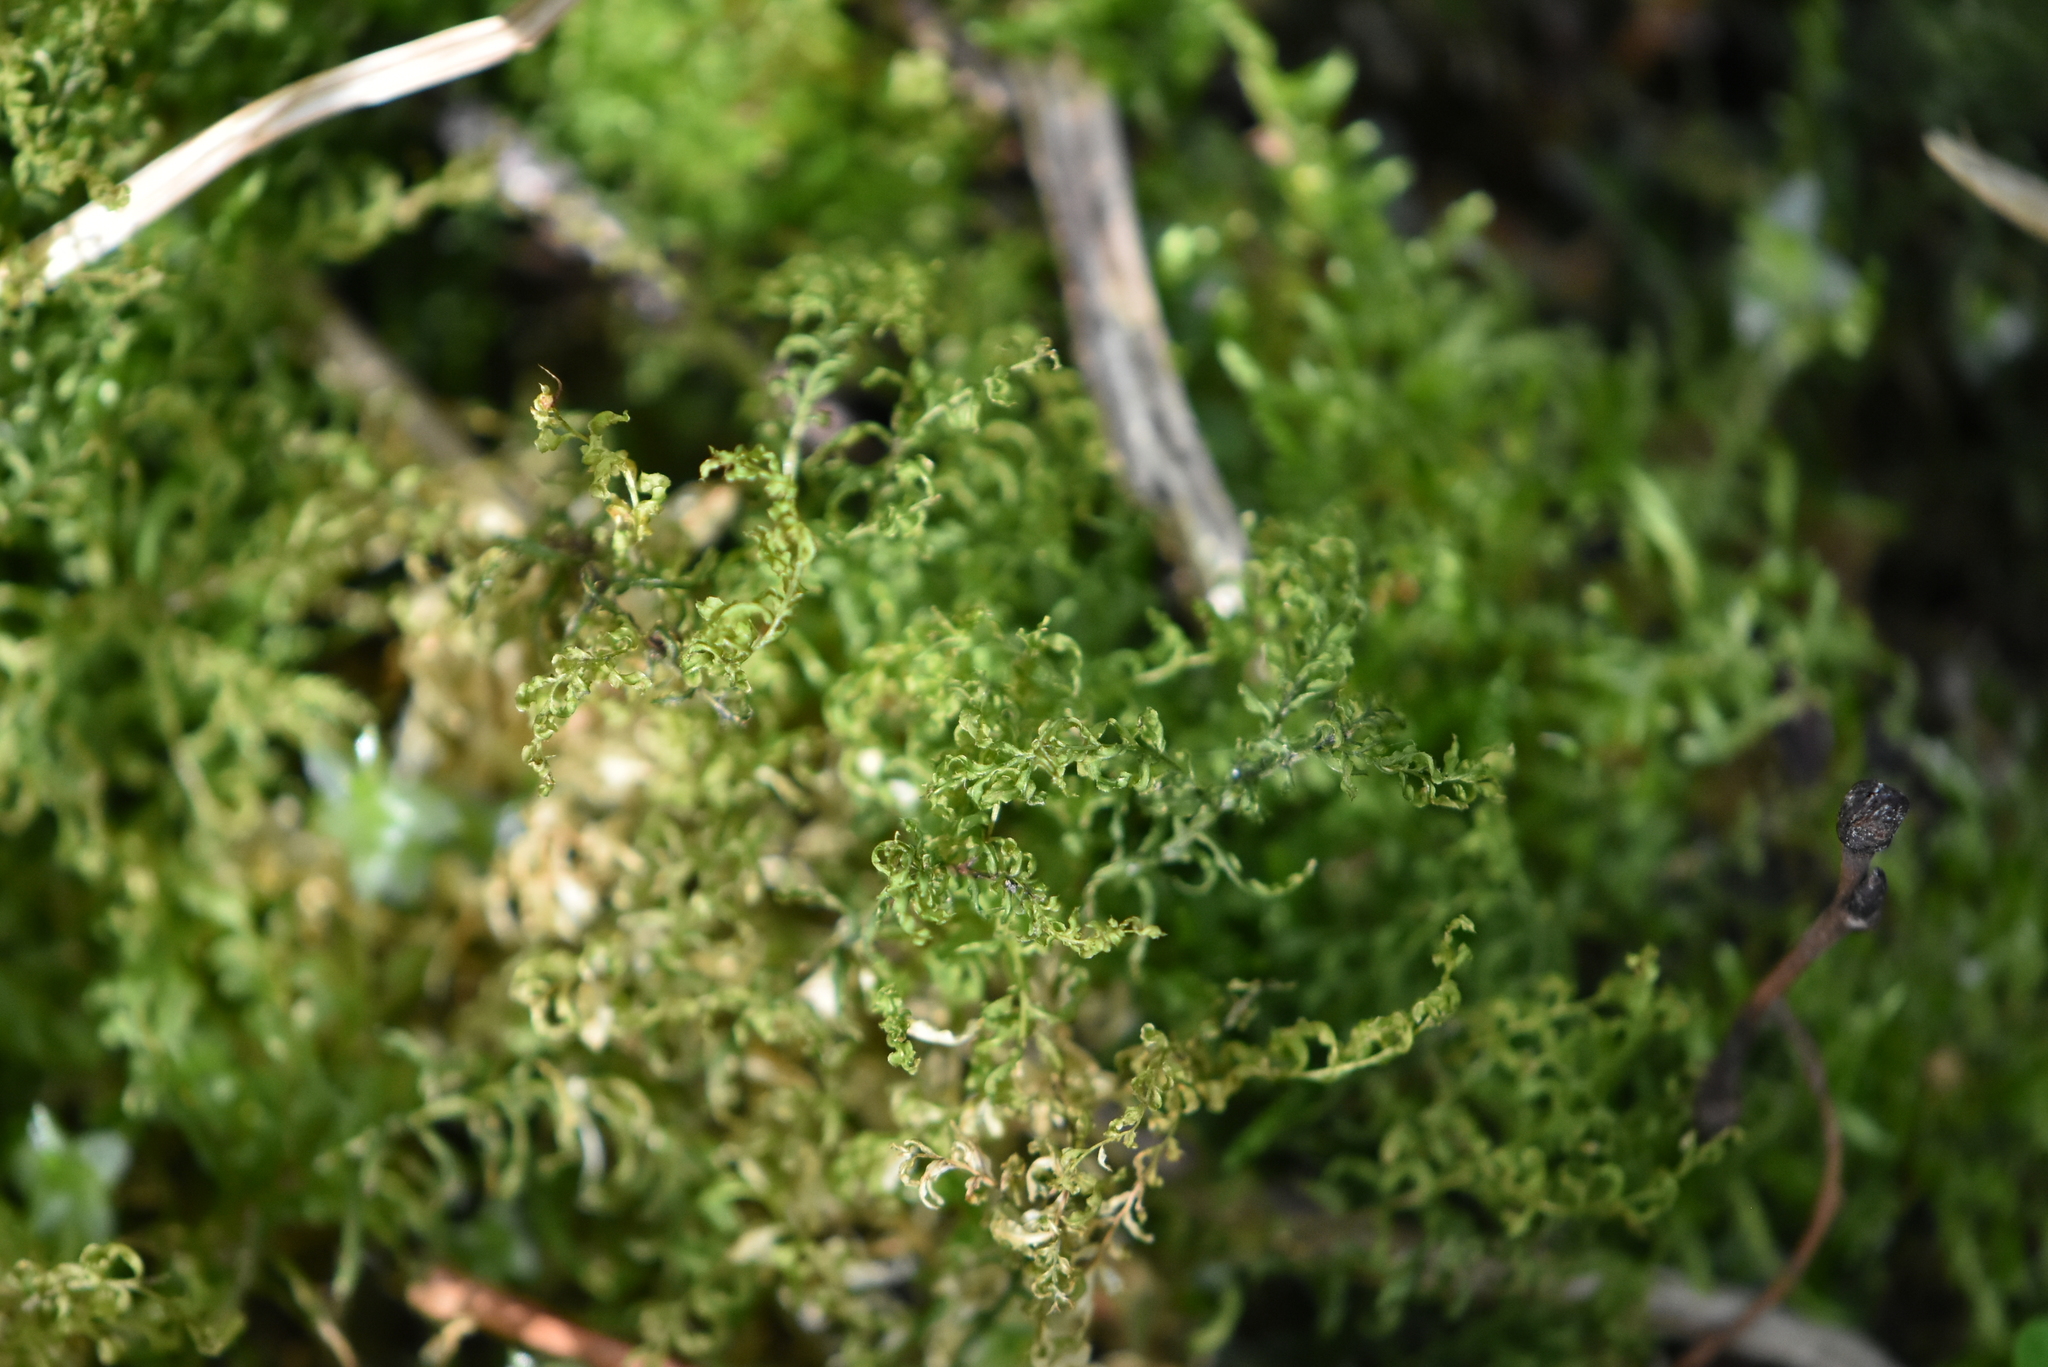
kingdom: Plantae
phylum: Bryophyta
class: Bryopsida
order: Bryales
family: Mniaceae
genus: Plagiomnium
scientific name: Plagiomnium undulatum
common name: Hart's-tongue thyme-moss
